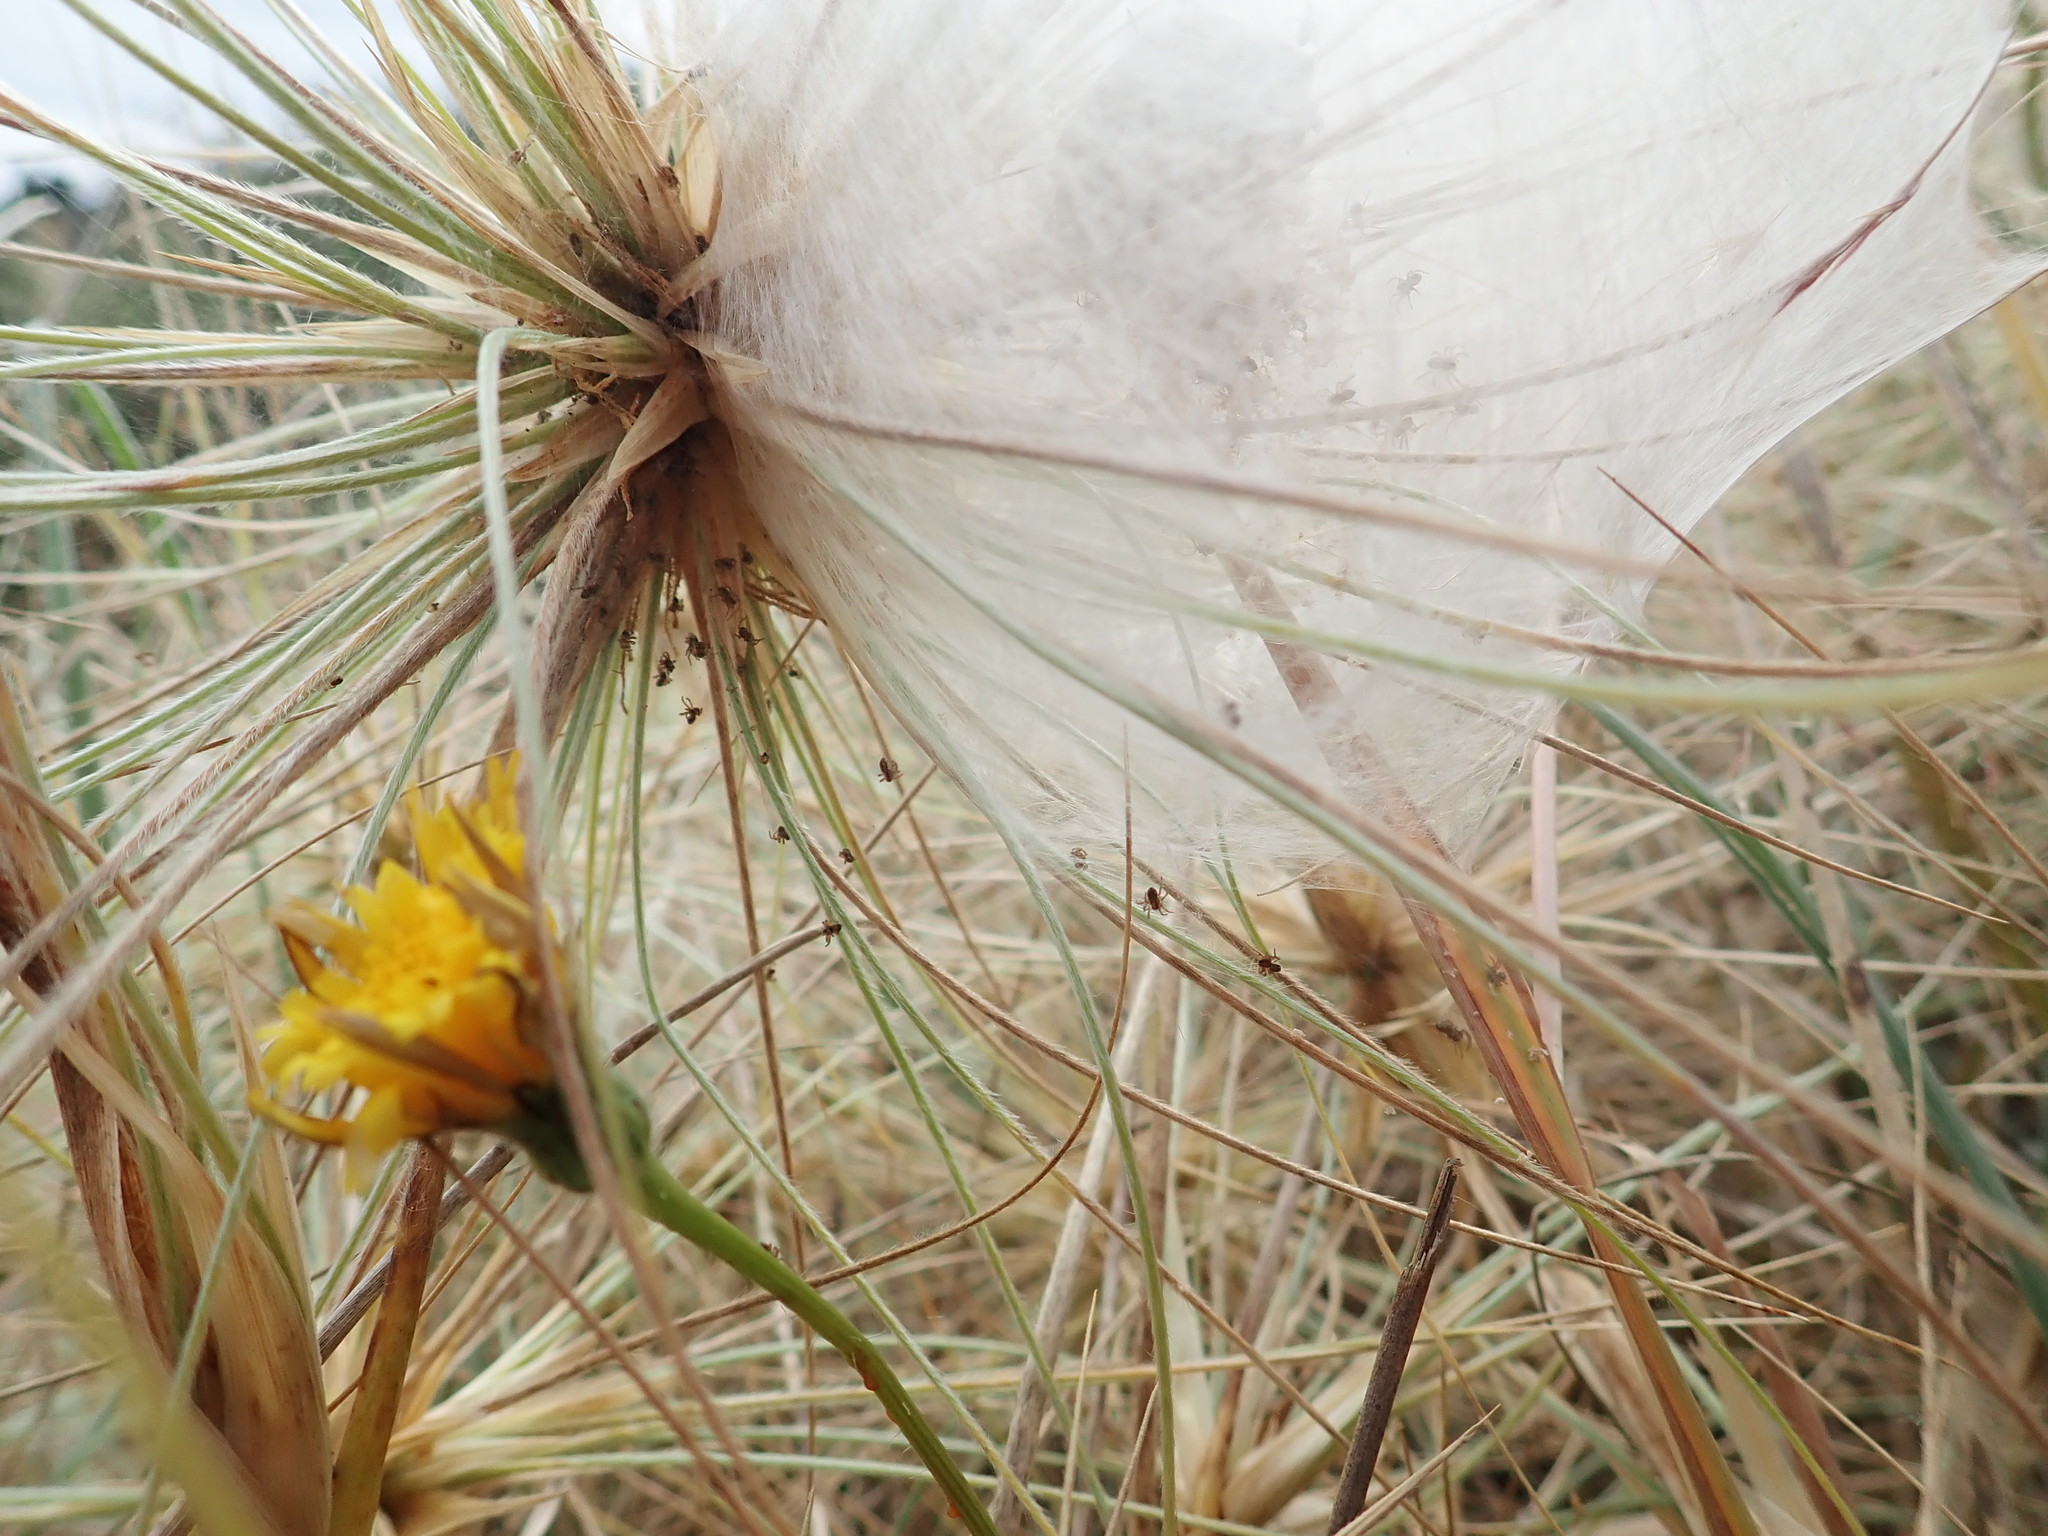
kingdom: Animalia
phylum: Arthropoda
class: Arachnida
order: Araneae
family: Pisauridae
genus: Dolomedes
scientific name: Dolomedes minor
